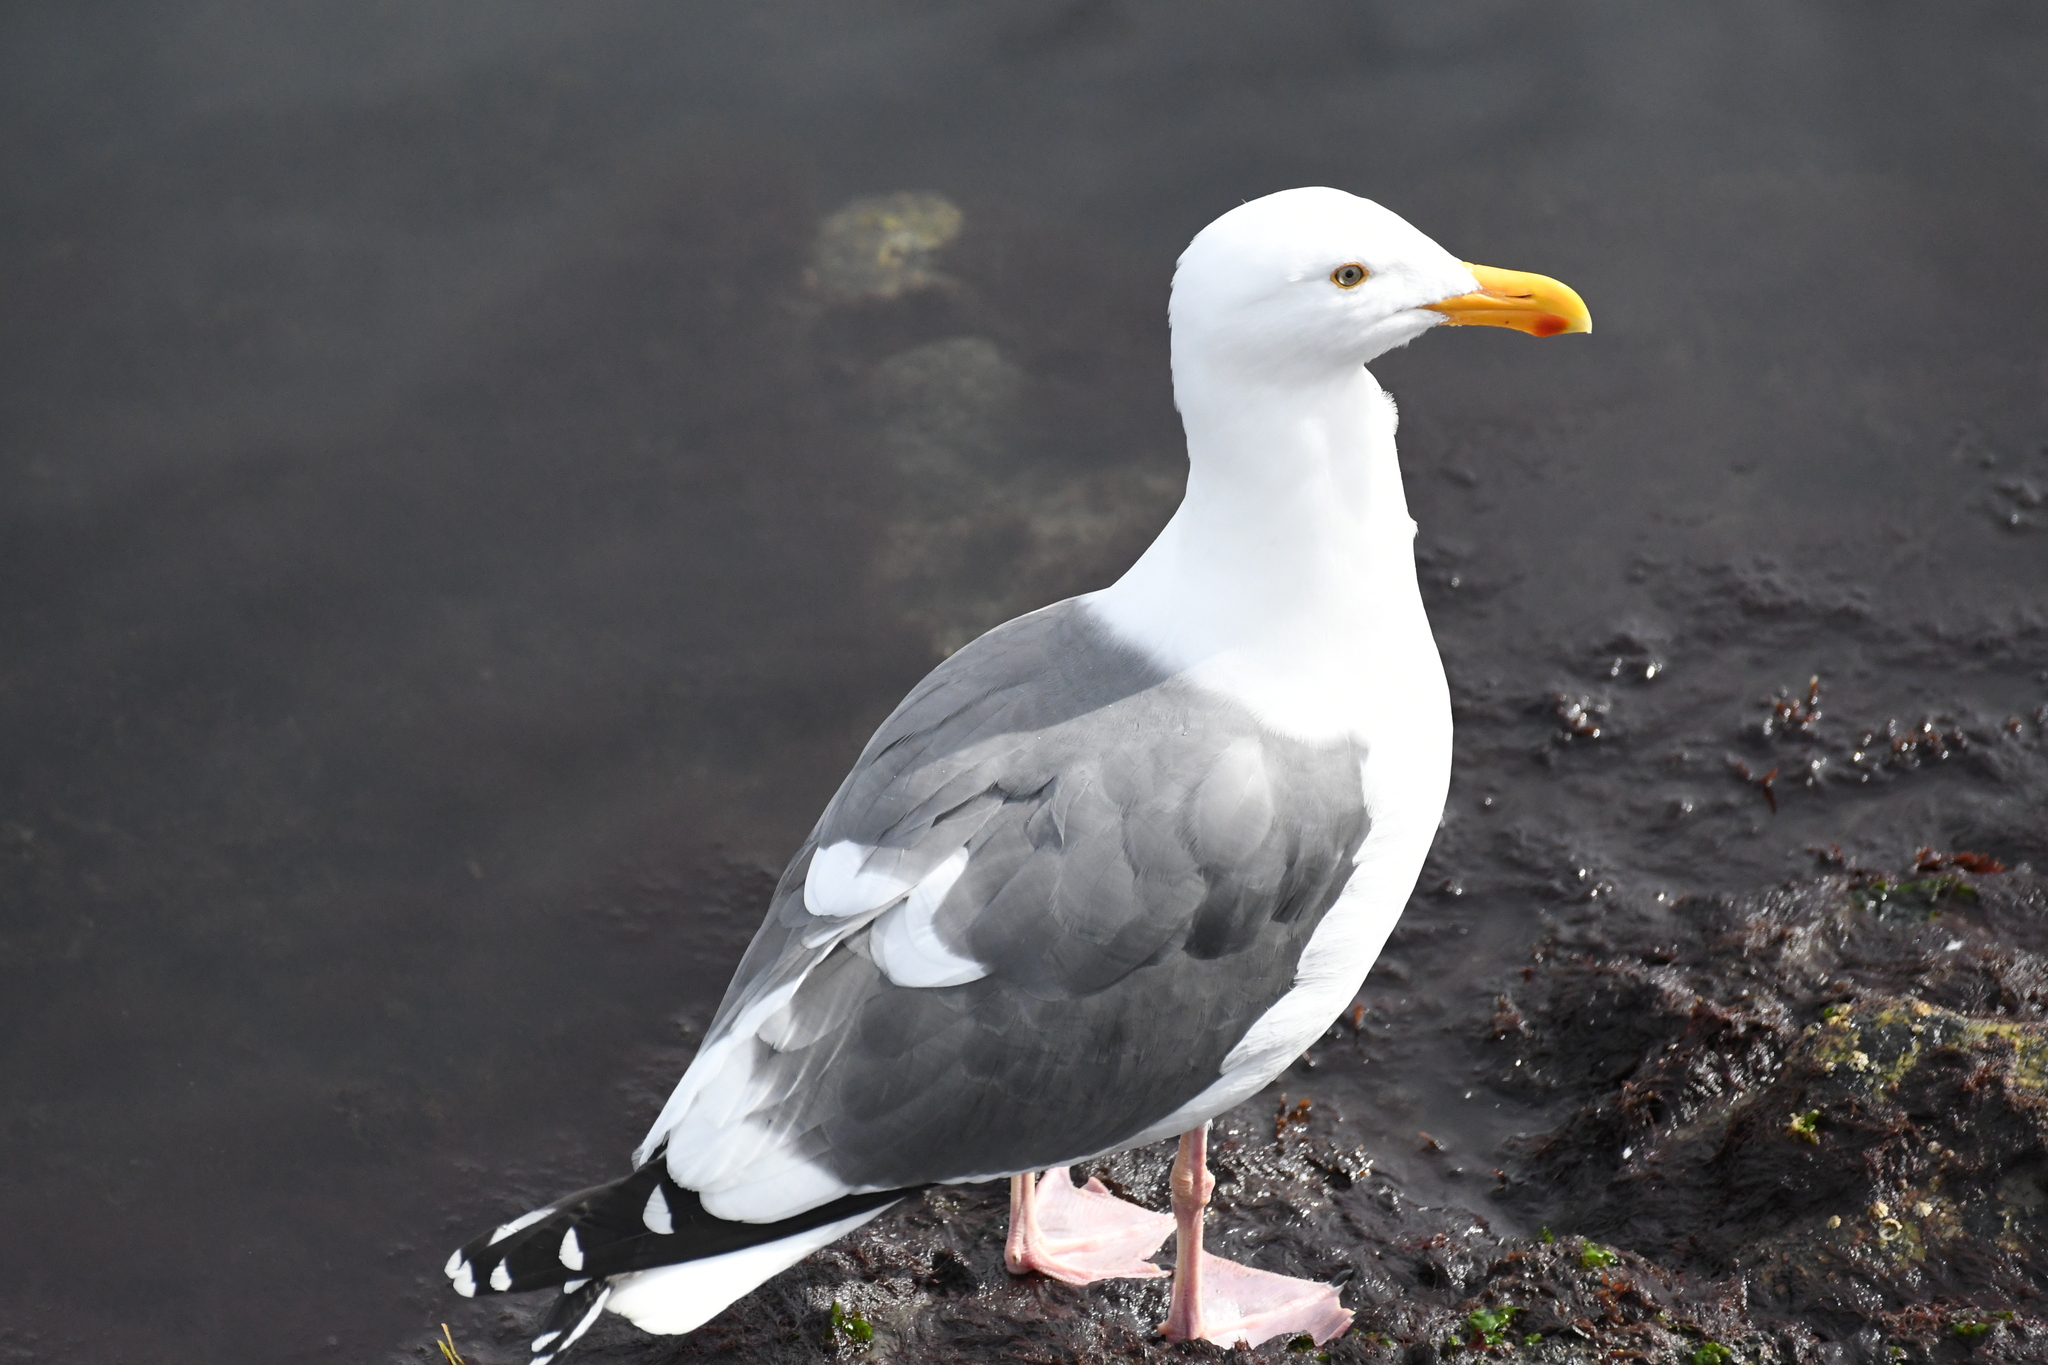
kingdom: Animalia
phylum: Chordata
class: Aves
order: Charadriiformes
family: Laridae
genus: Larus
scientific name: Larus occidentalis
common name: Western gull
